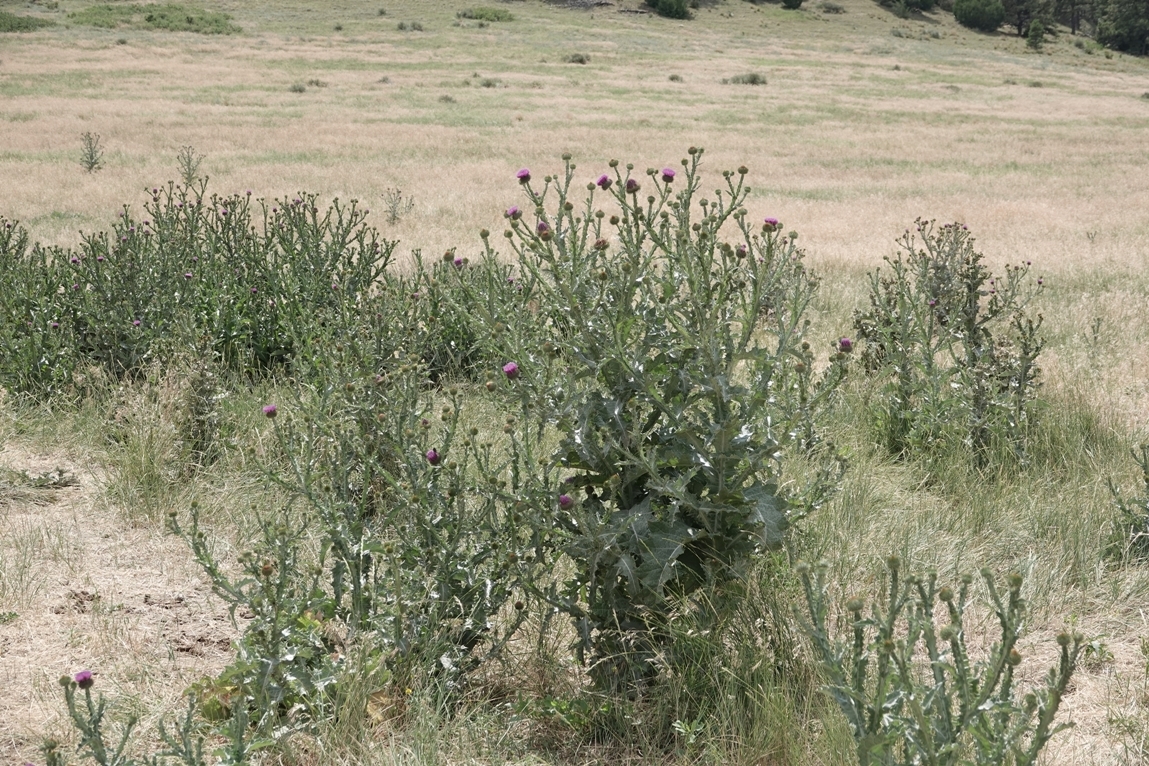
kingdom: Plantae
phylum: Tracheophyta
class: Magnoliopsida
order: Asterales
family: Asteraceae
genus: Onopordum
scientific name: Onopordum acanthium
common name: Scotch thistle
